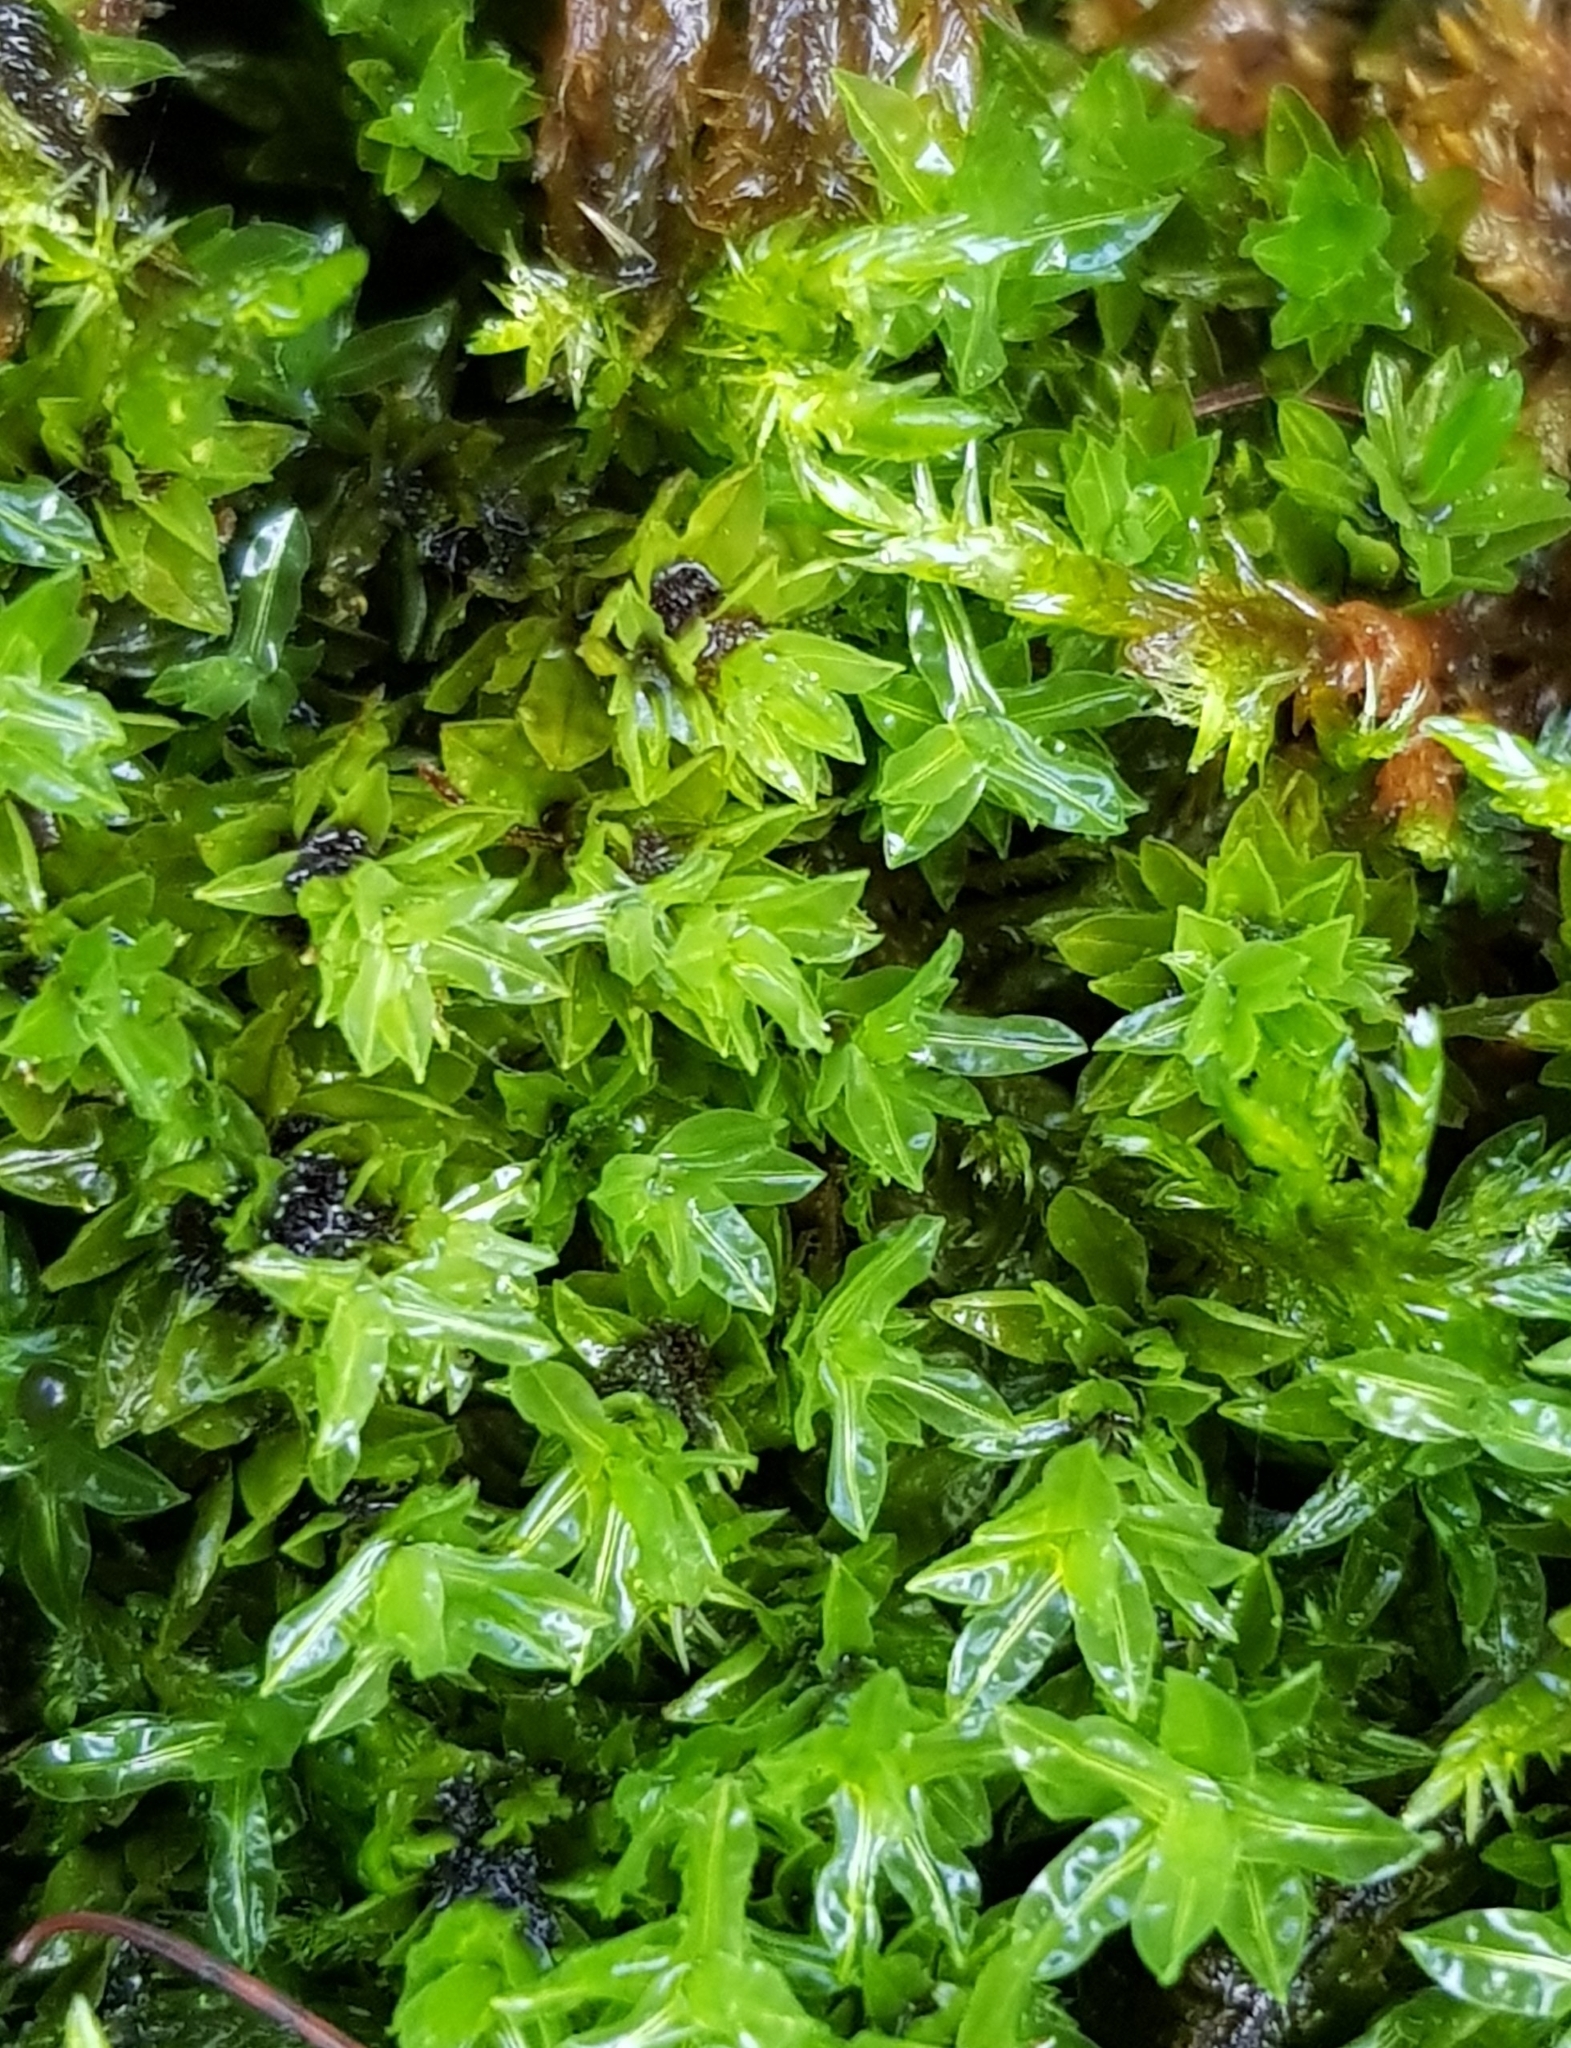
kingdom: Plantae
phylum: Bryophyta
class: Bryopsida
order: Encalyptales
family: Encalyptaceae
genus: Encalypta
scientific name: Encalypta streptocarpa
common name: Spiral extinguisher-moss
